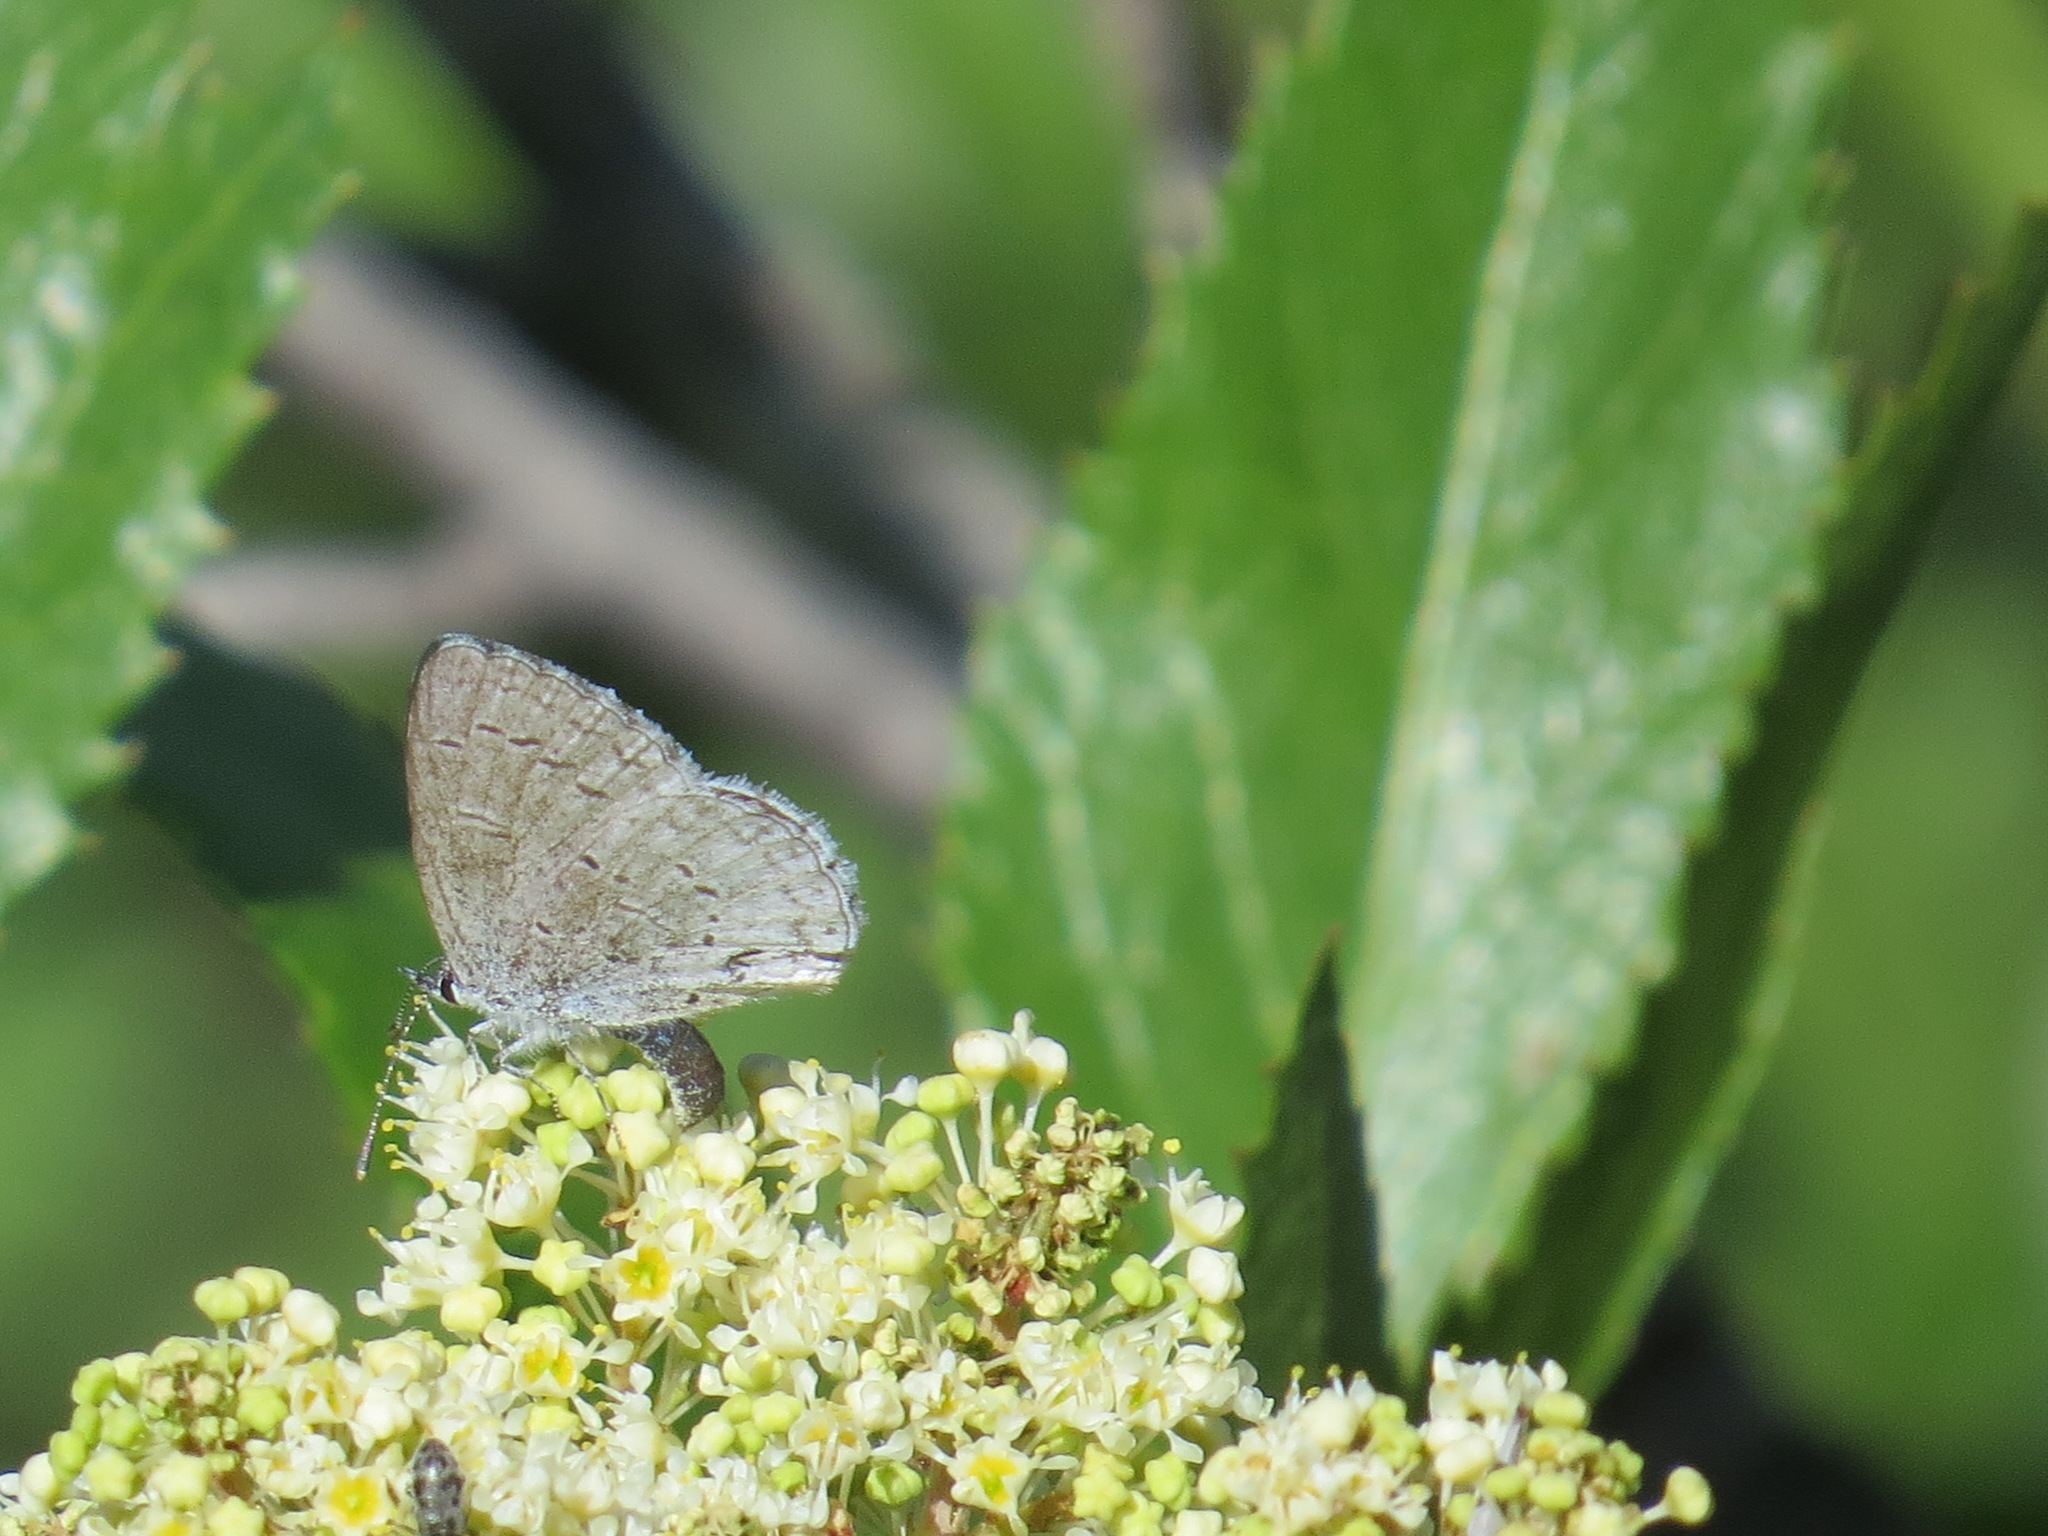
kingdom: Animalia
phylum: Arthropoda
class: Insecta
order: Lepidoptera
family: Lycaenidae
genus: Celastrina
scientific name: Celastrina ladon
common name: Spring azure
